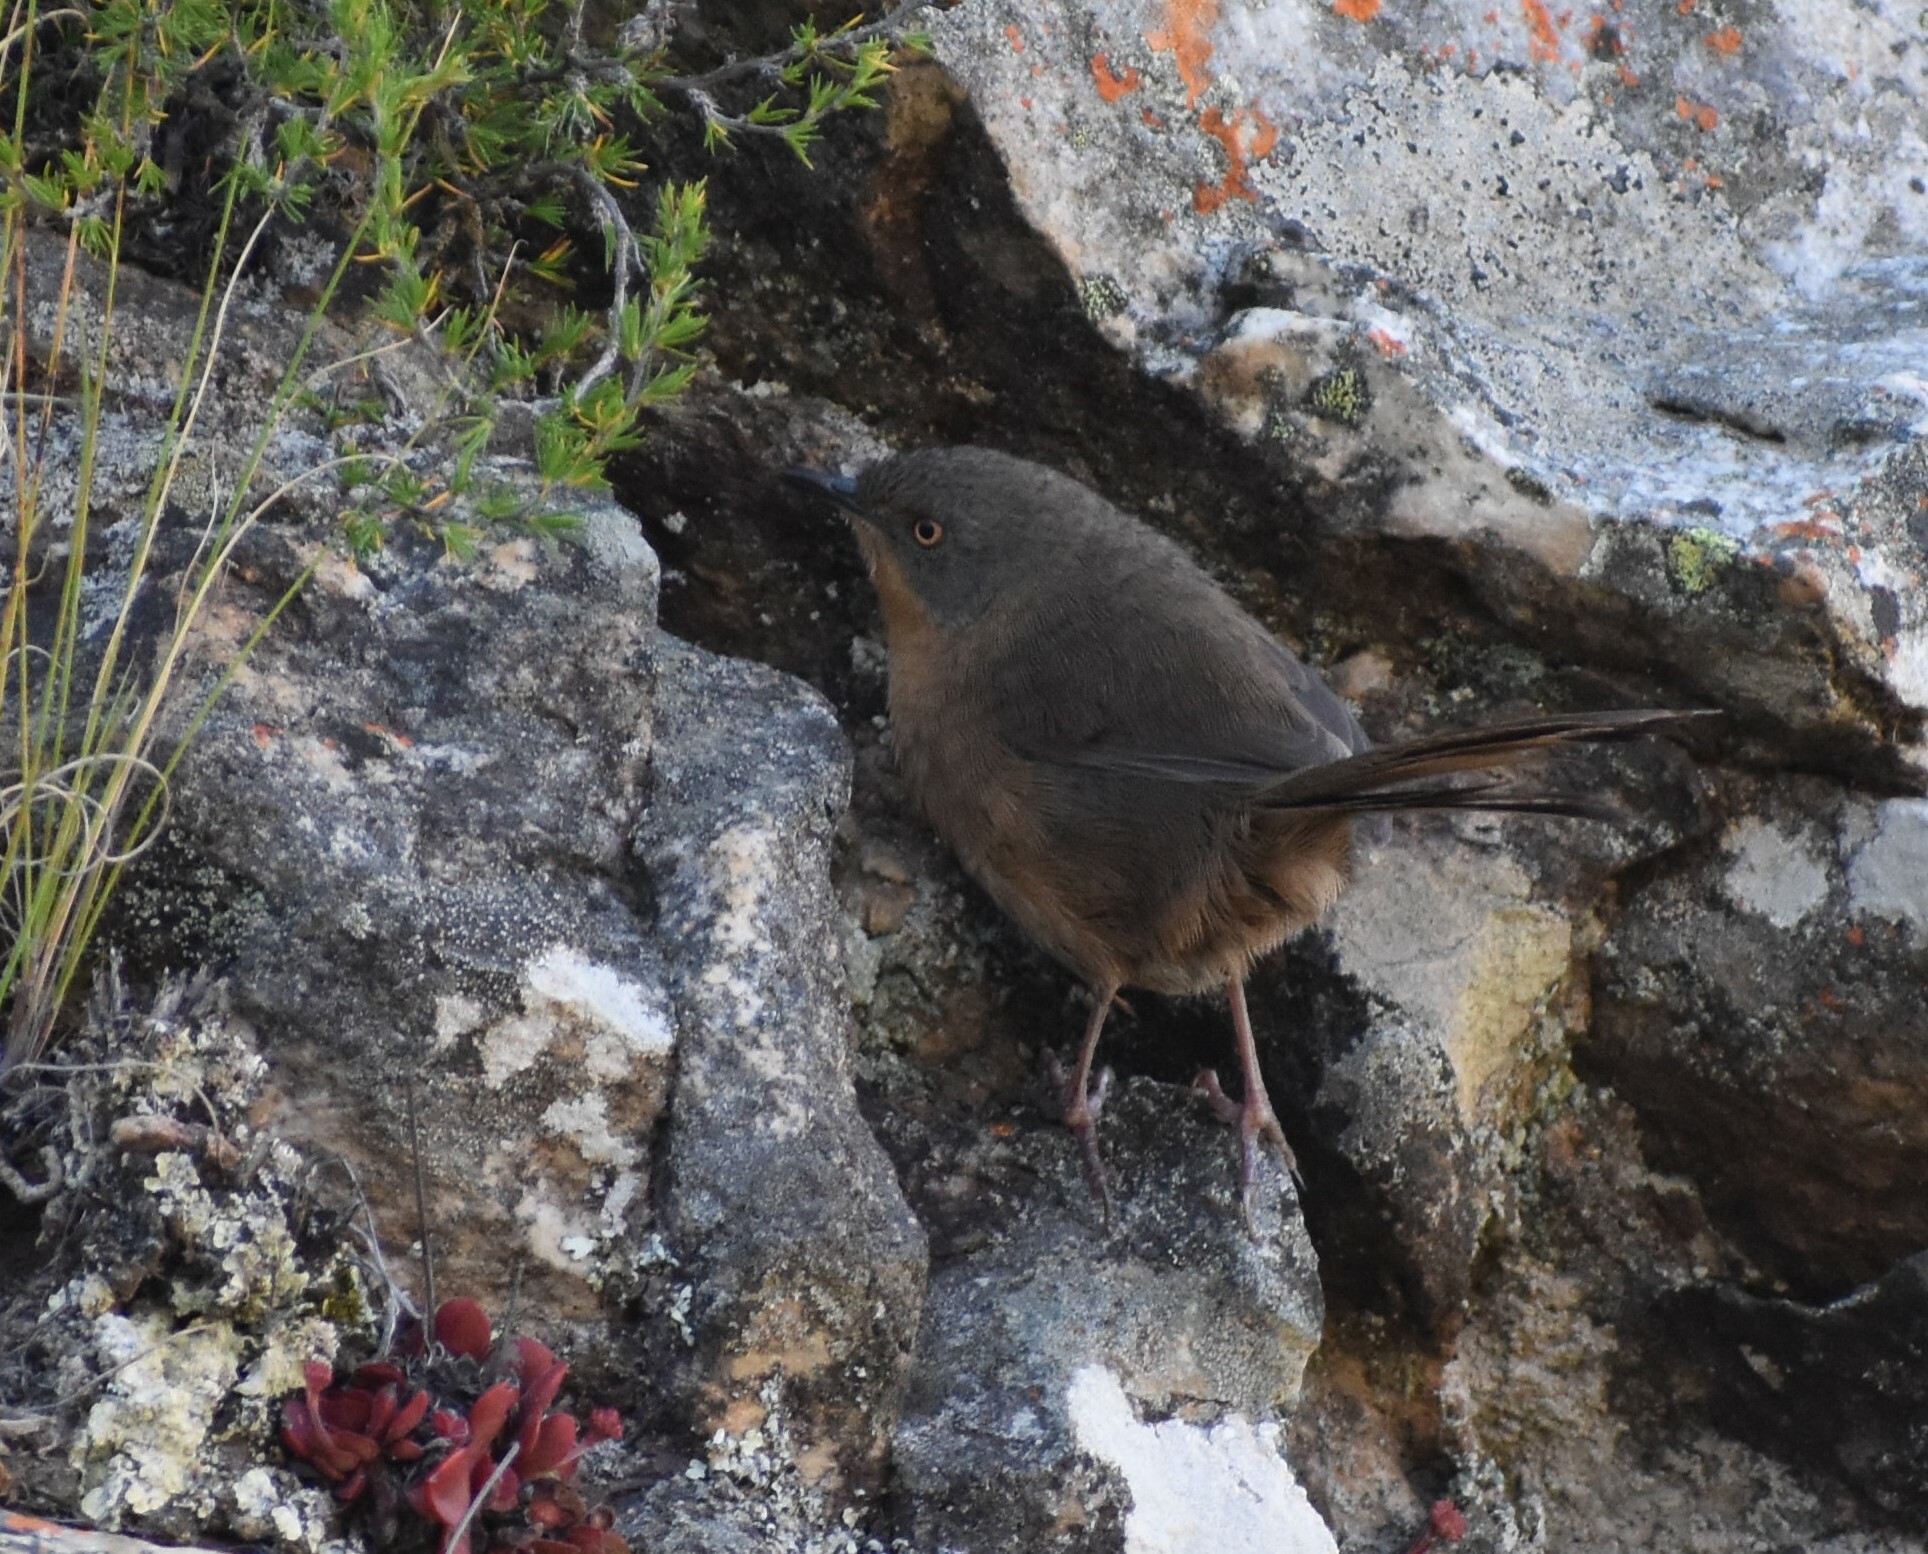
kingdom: Animalia
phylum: Chordata
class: Aves
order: Passeriformes
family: Macrosphenidae
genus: Cryptillas
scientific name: Cryptillas victorini
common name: Victorin's warbler
